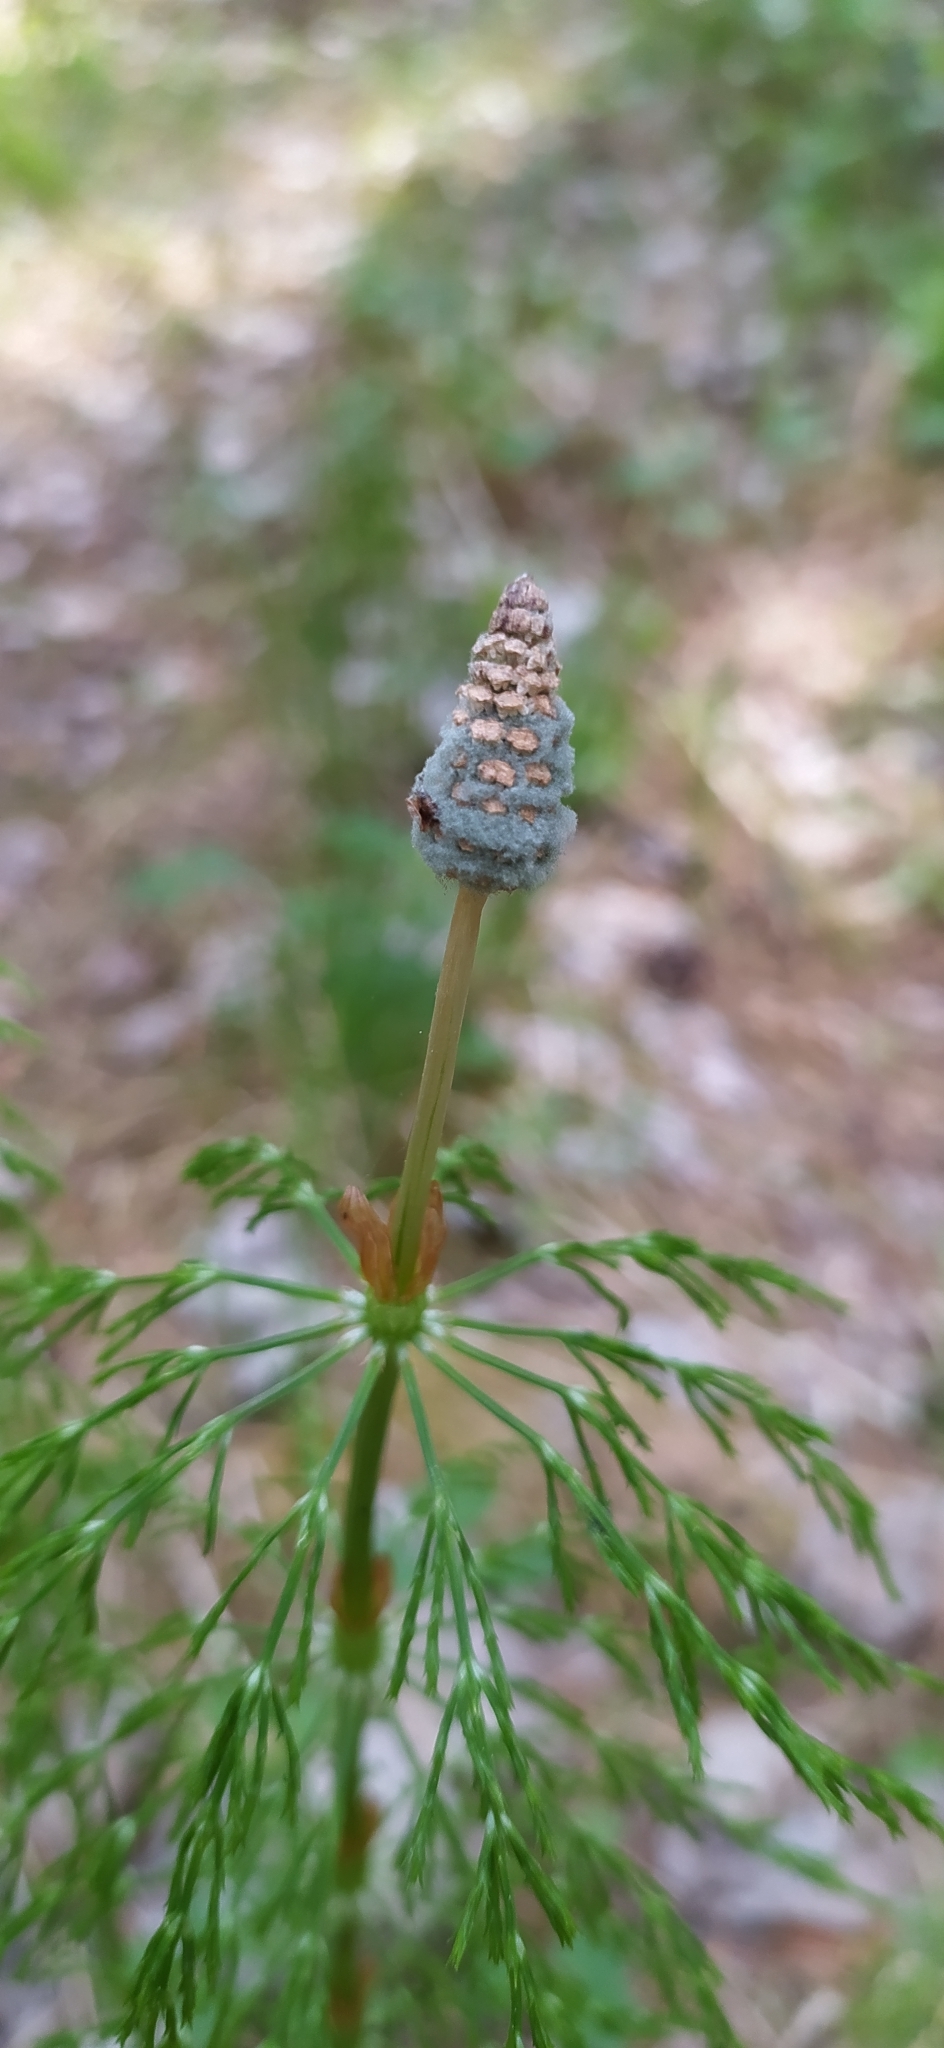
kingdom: Plantae
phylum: Tracheophyta
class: Polypodiopsida
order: Equisetales
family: Equisetaceae
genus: Equisetum
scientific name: Equisetum sylvaticum
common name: Wood horsetail
